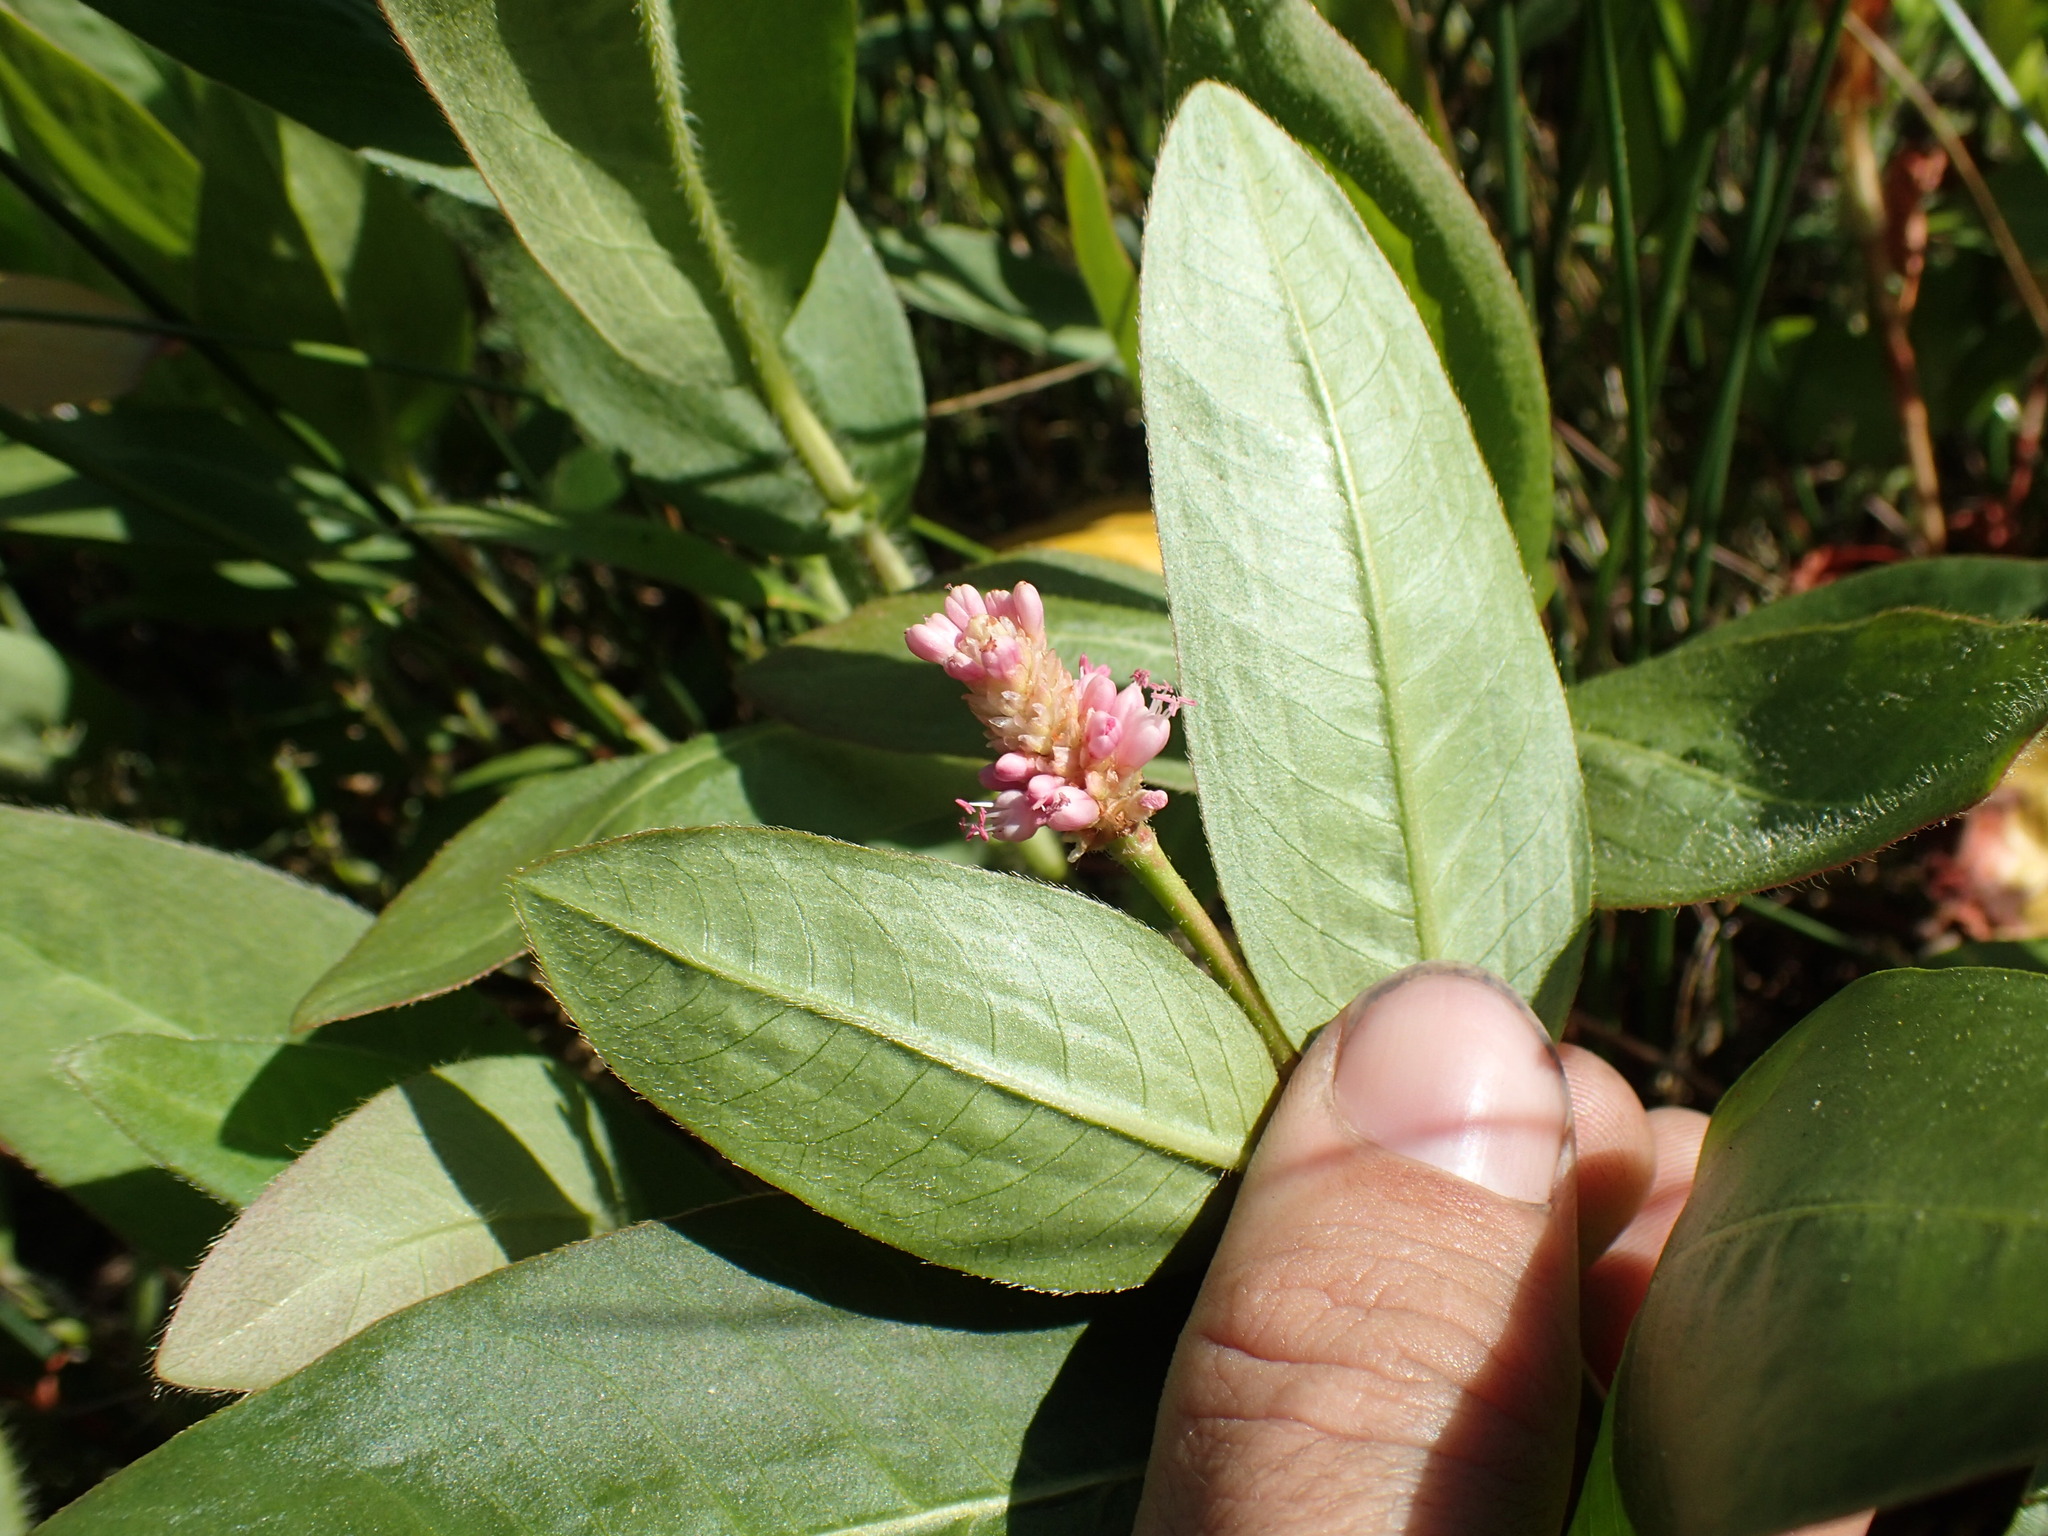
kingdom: Plantae
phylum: Tracheophyta
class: Magnoliopsida
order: Caryophyllales
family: Polygonaceae
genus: Persicaria
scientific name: Persicaria amphibia
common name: Amphibious bistort
